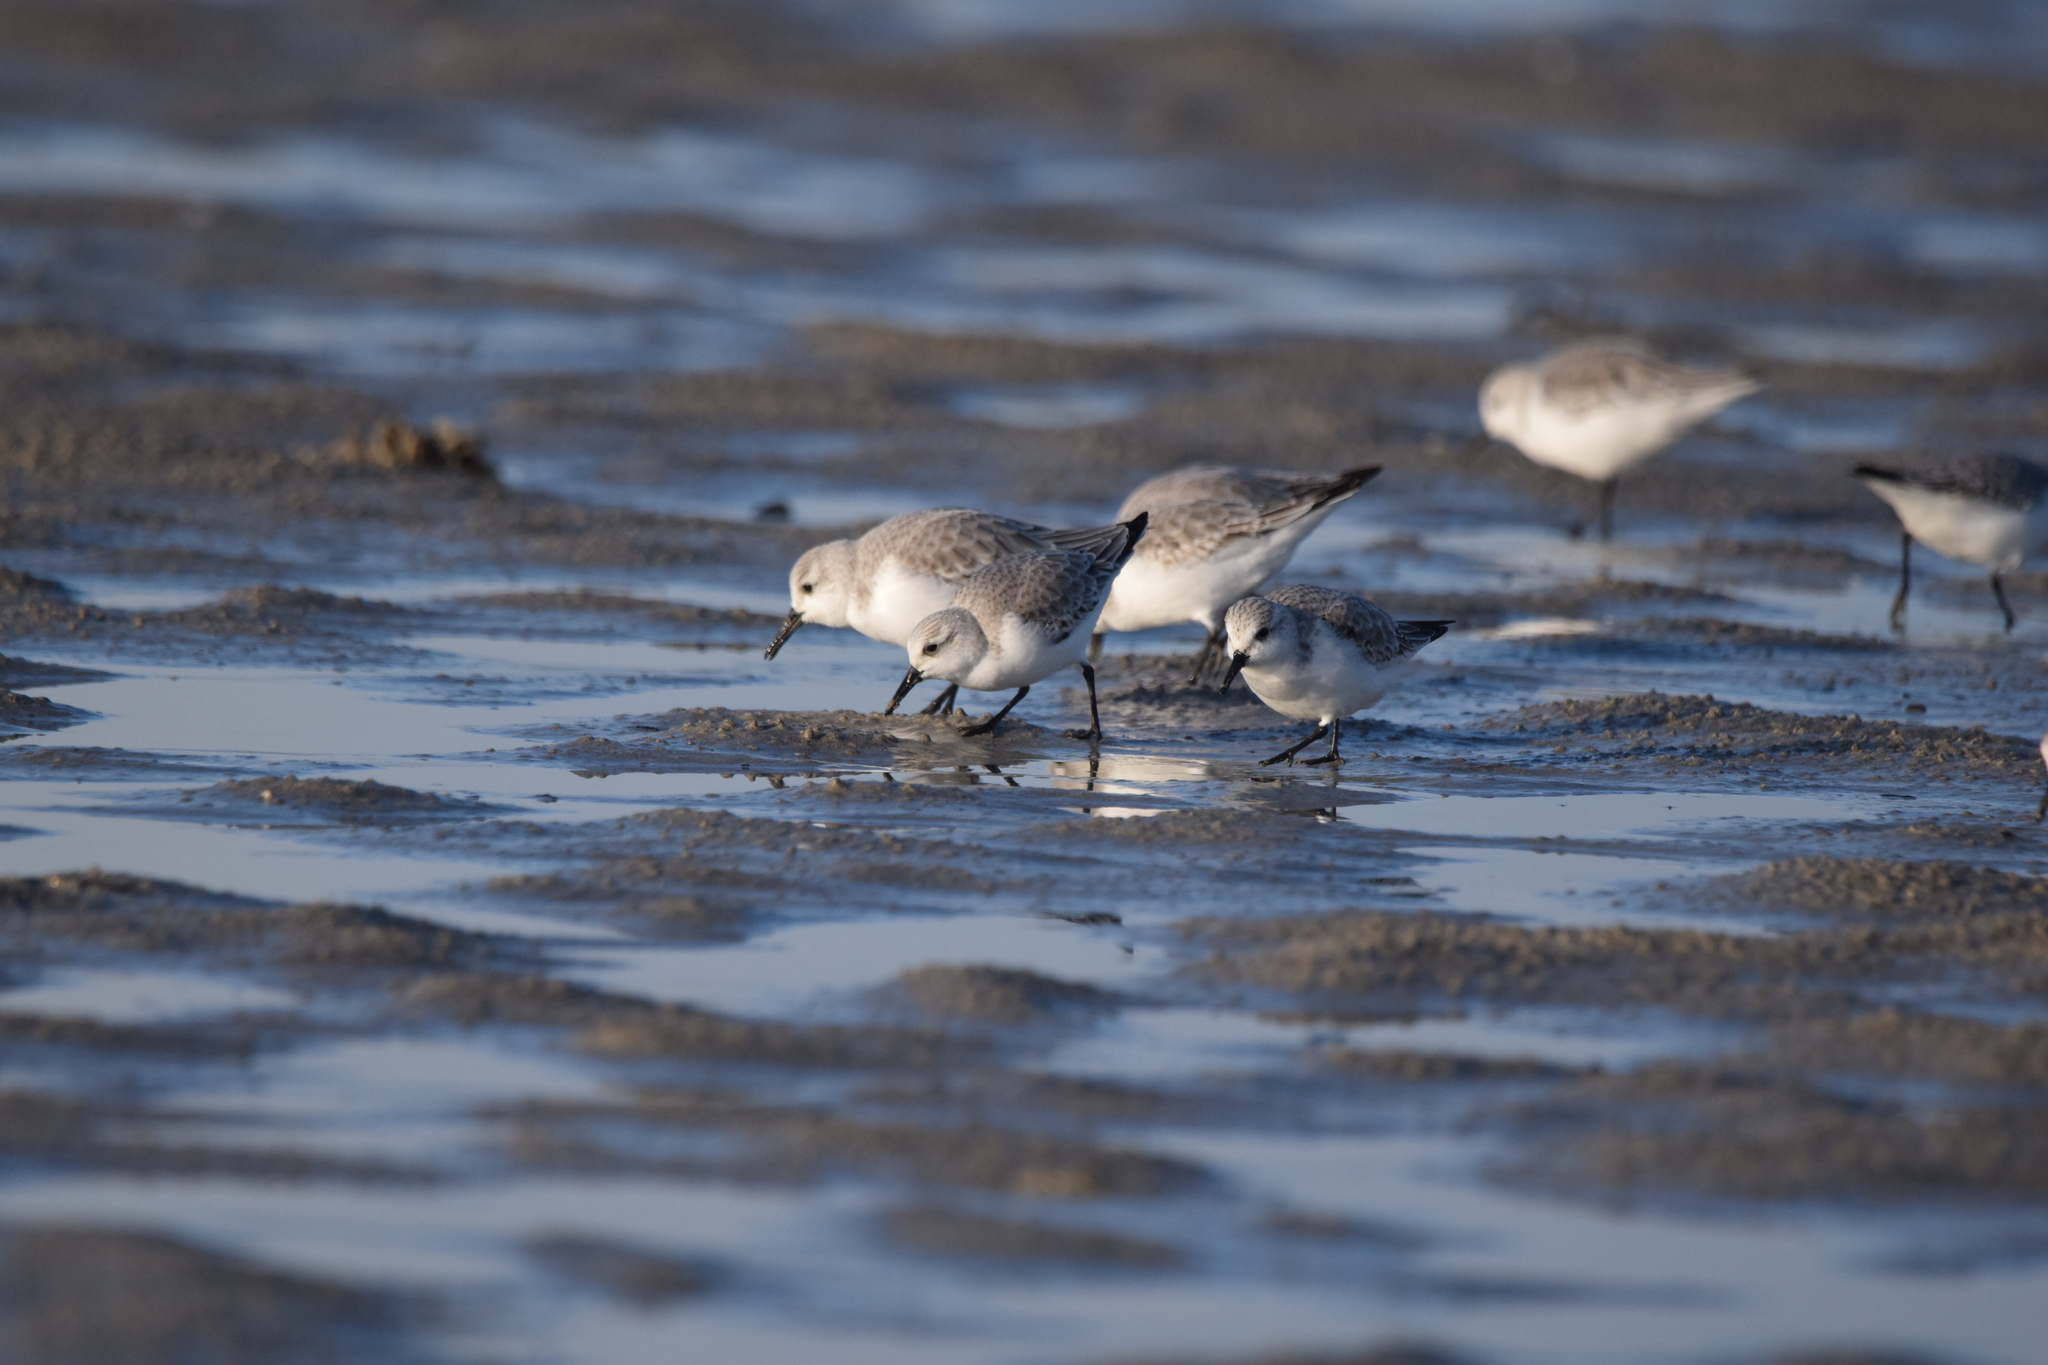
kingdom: Animalia
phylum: Chordata
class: Aves
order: Charadriiformes
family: Scolopacidae
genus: Calidris
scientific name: Calidris alba
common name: Sanderling
